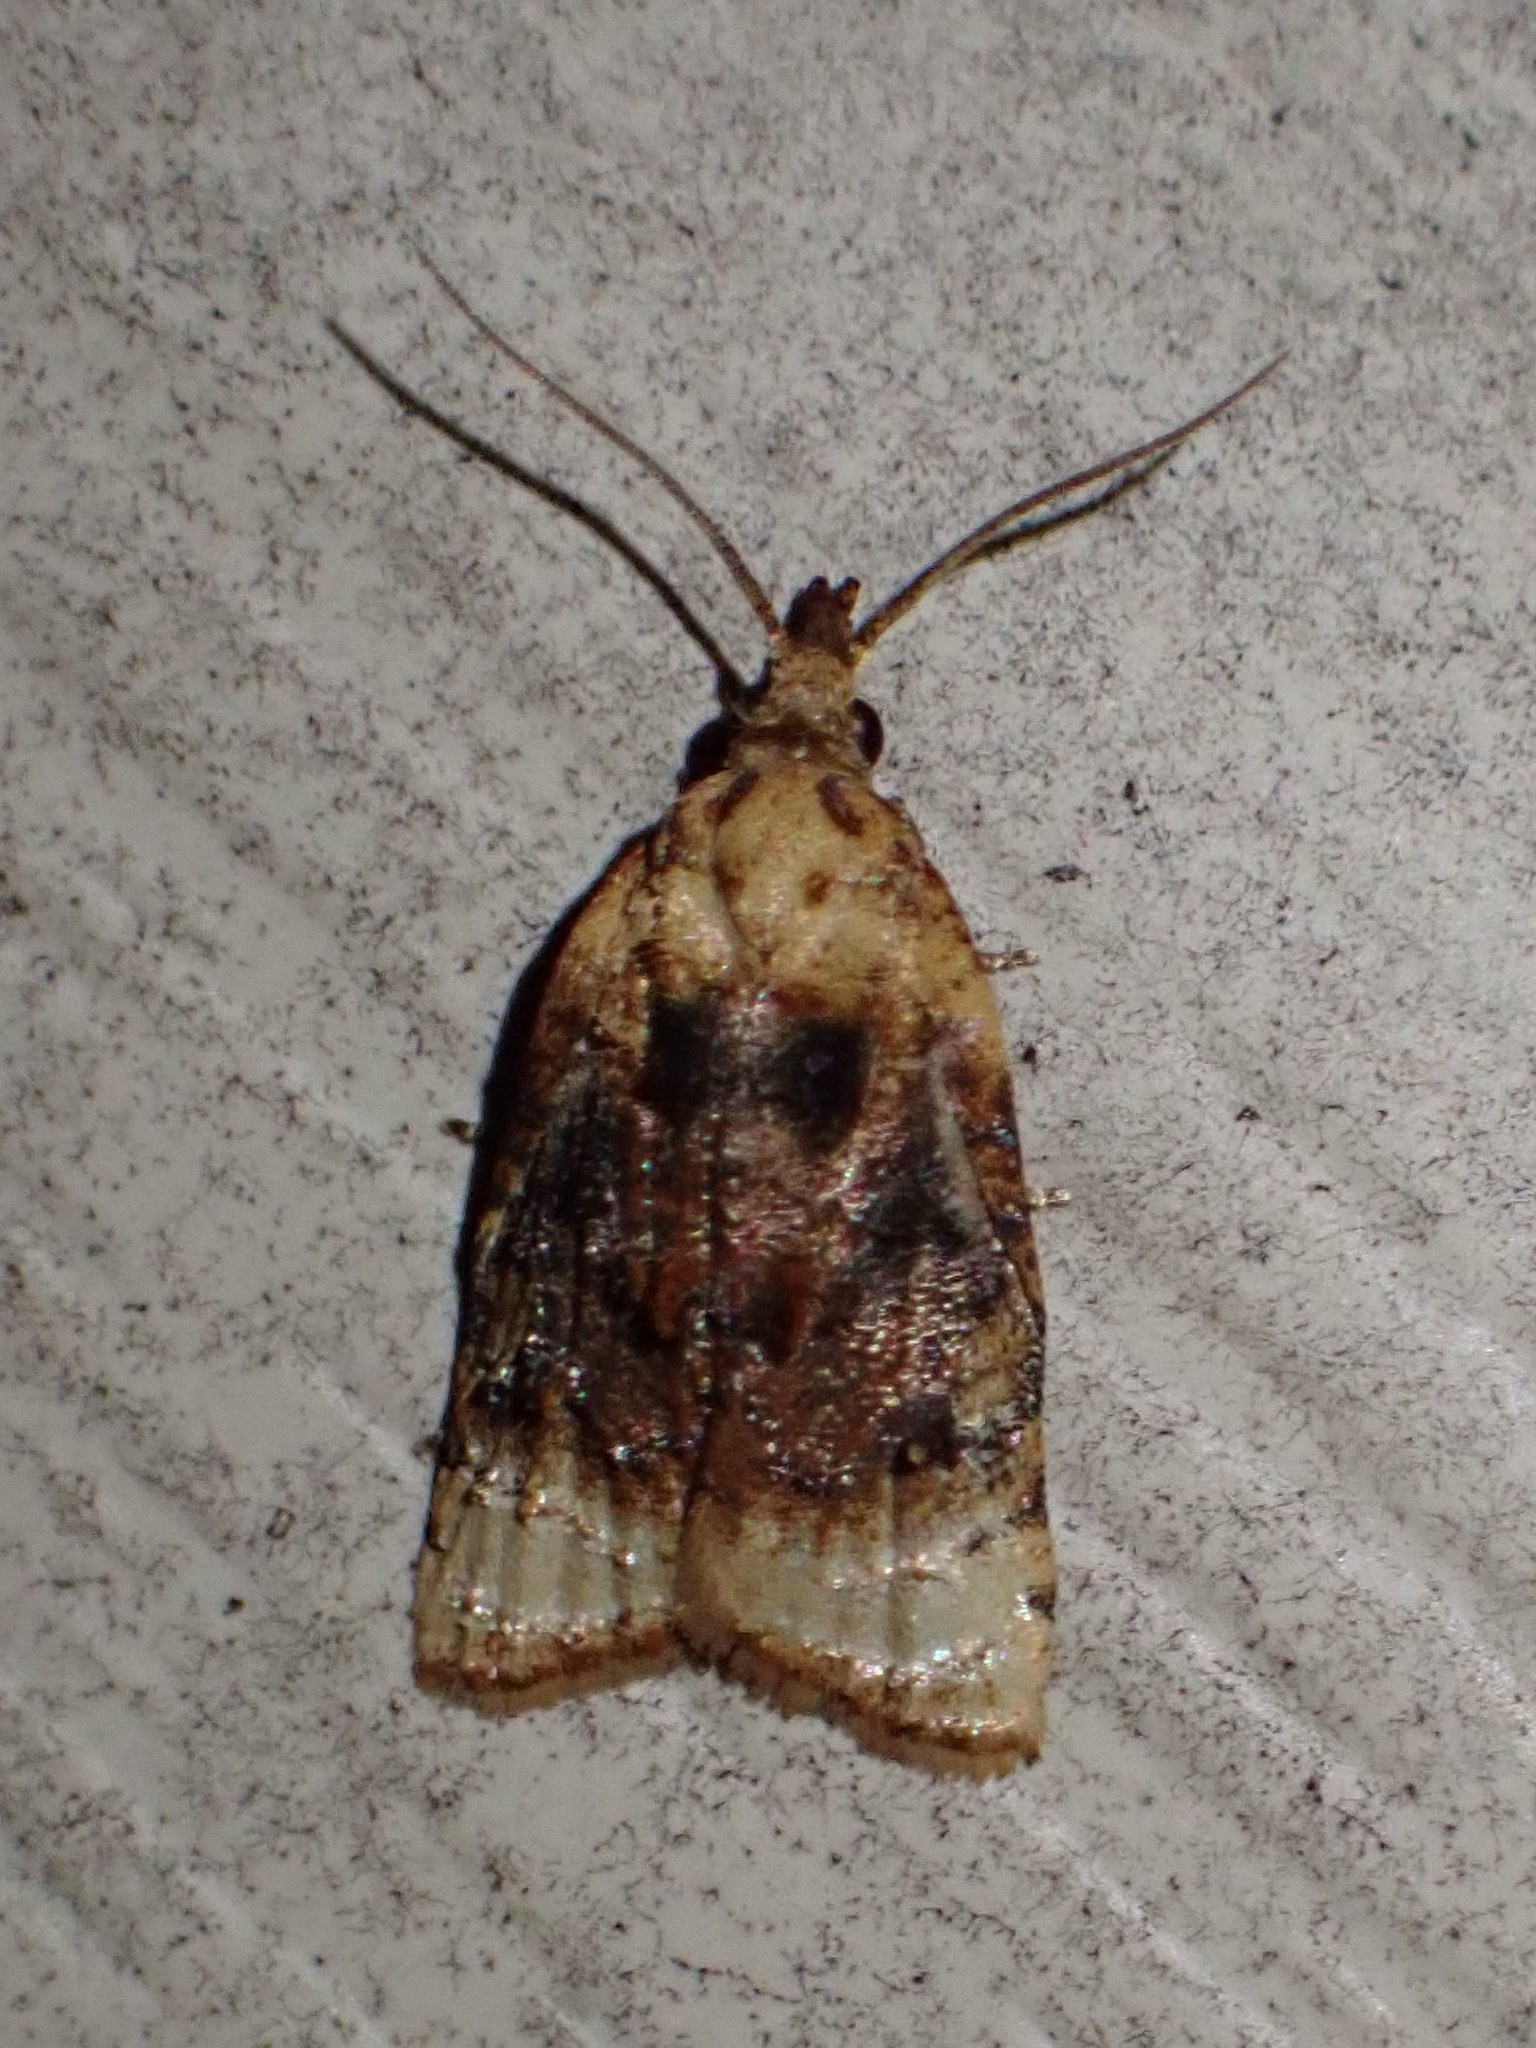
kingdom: Animalia
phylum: Arthropoda
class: Insecta
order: Lepidoptera
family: Tortricidae
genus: Platynota
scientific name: Platynota flavedana
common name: Black-shaded platynota moth
